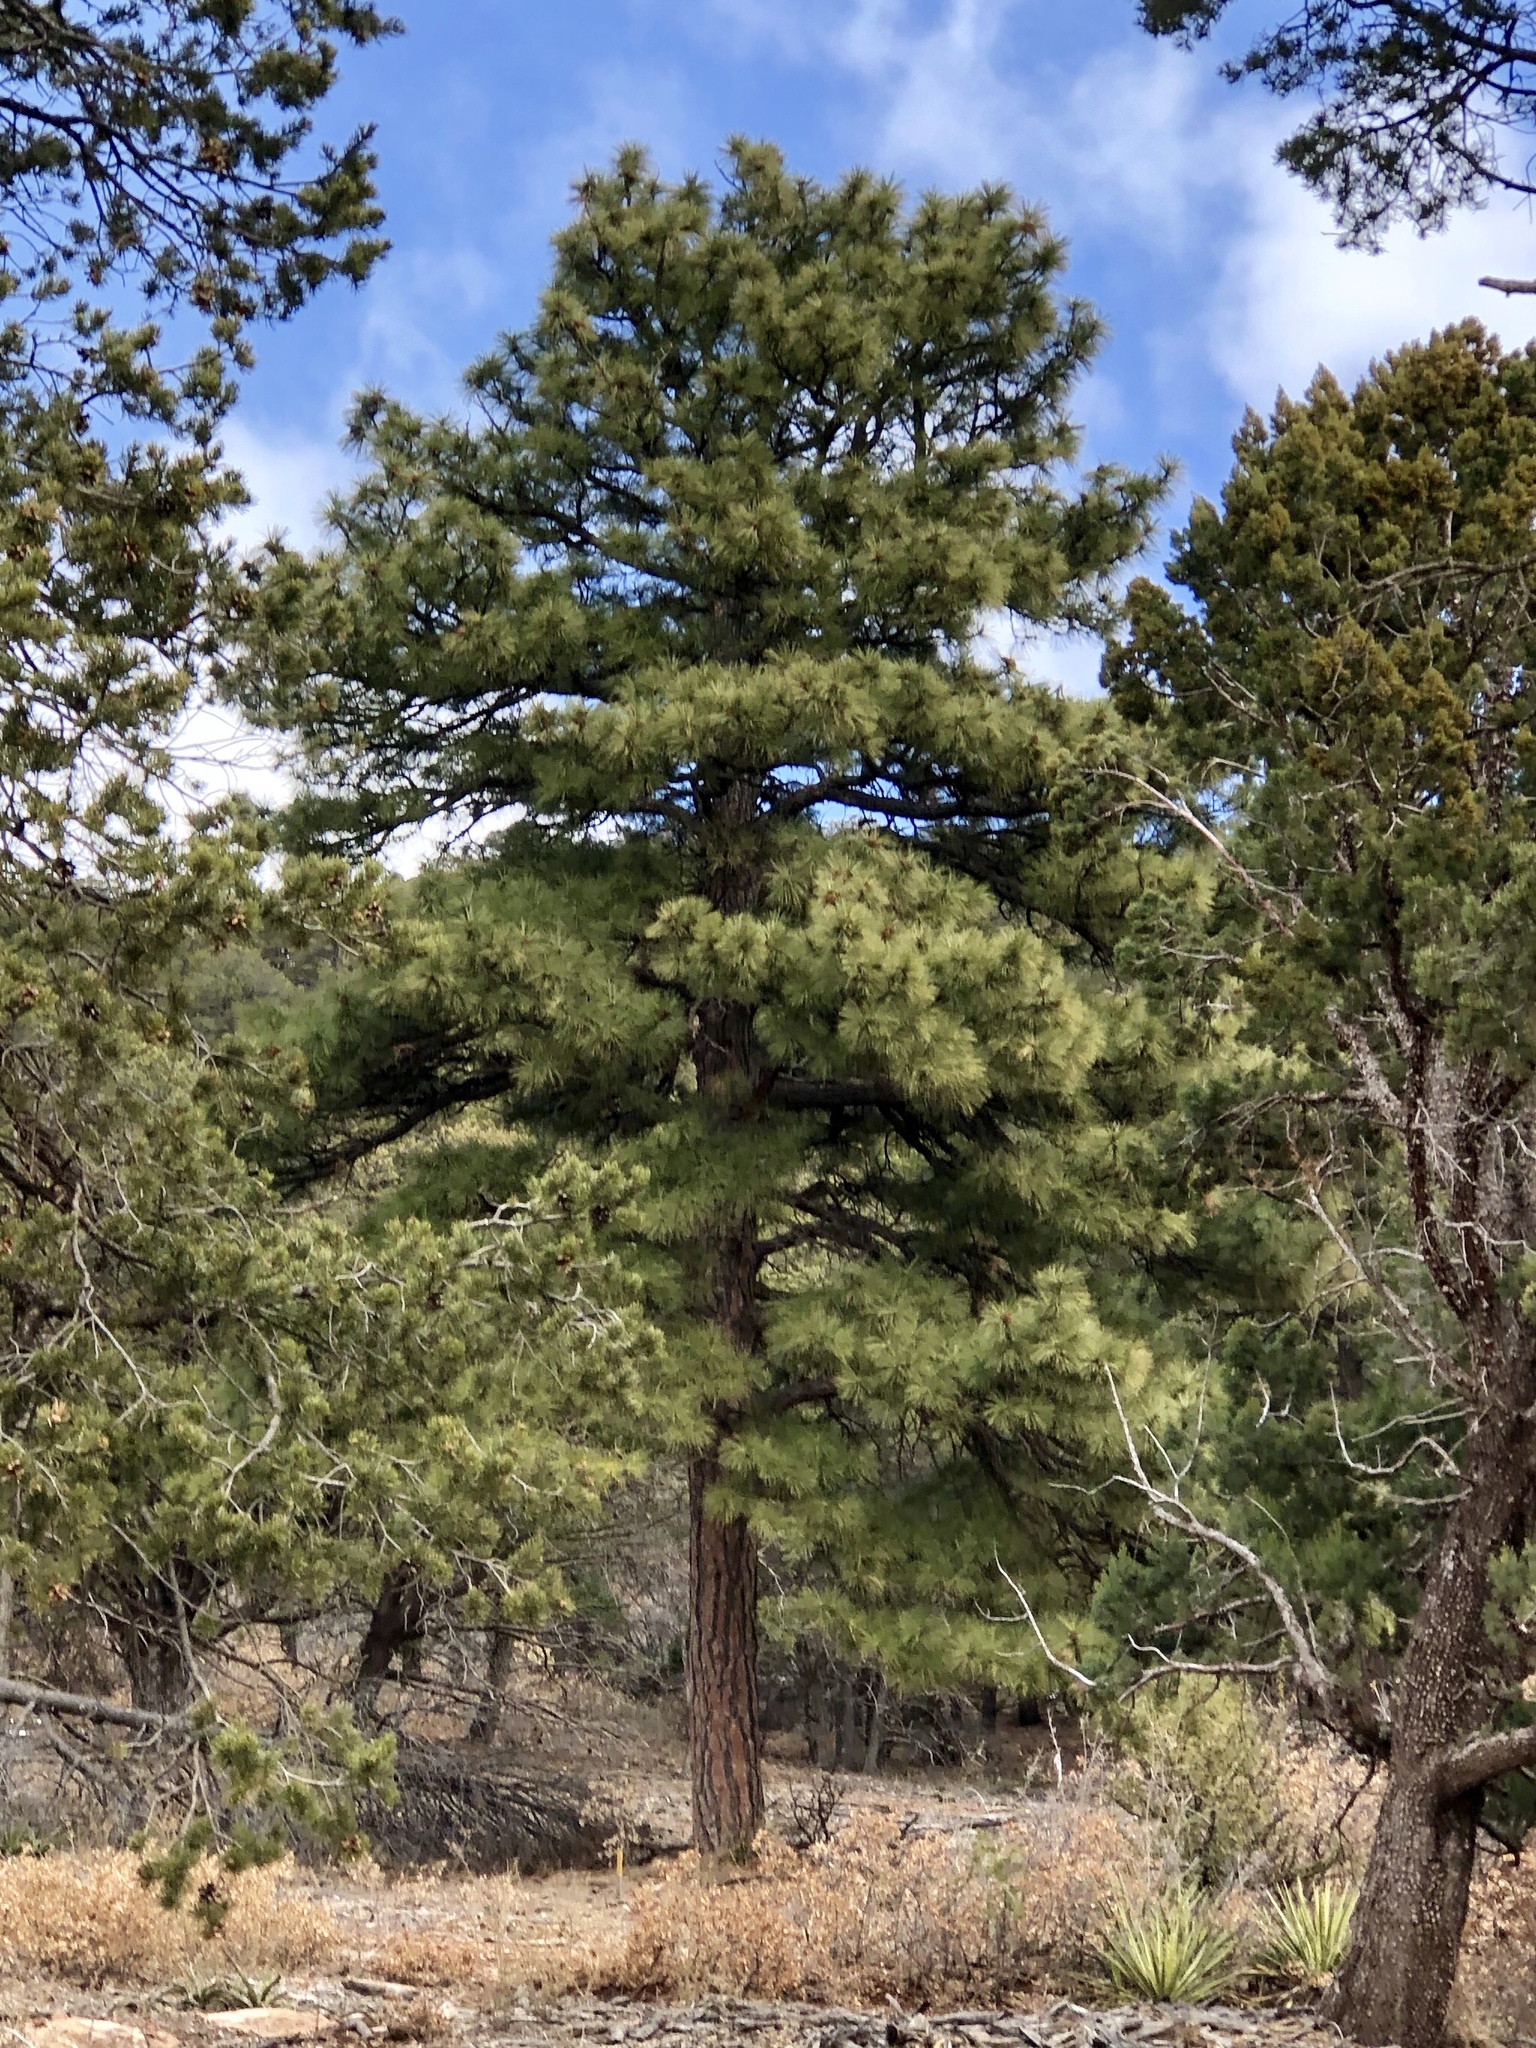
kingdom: Plantae
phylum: Tracheophyta
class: Pinopsida
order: Pinales
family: Pinaceae
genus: Pinus
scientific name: Pinus ponderosa
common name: Western yellow-pine
